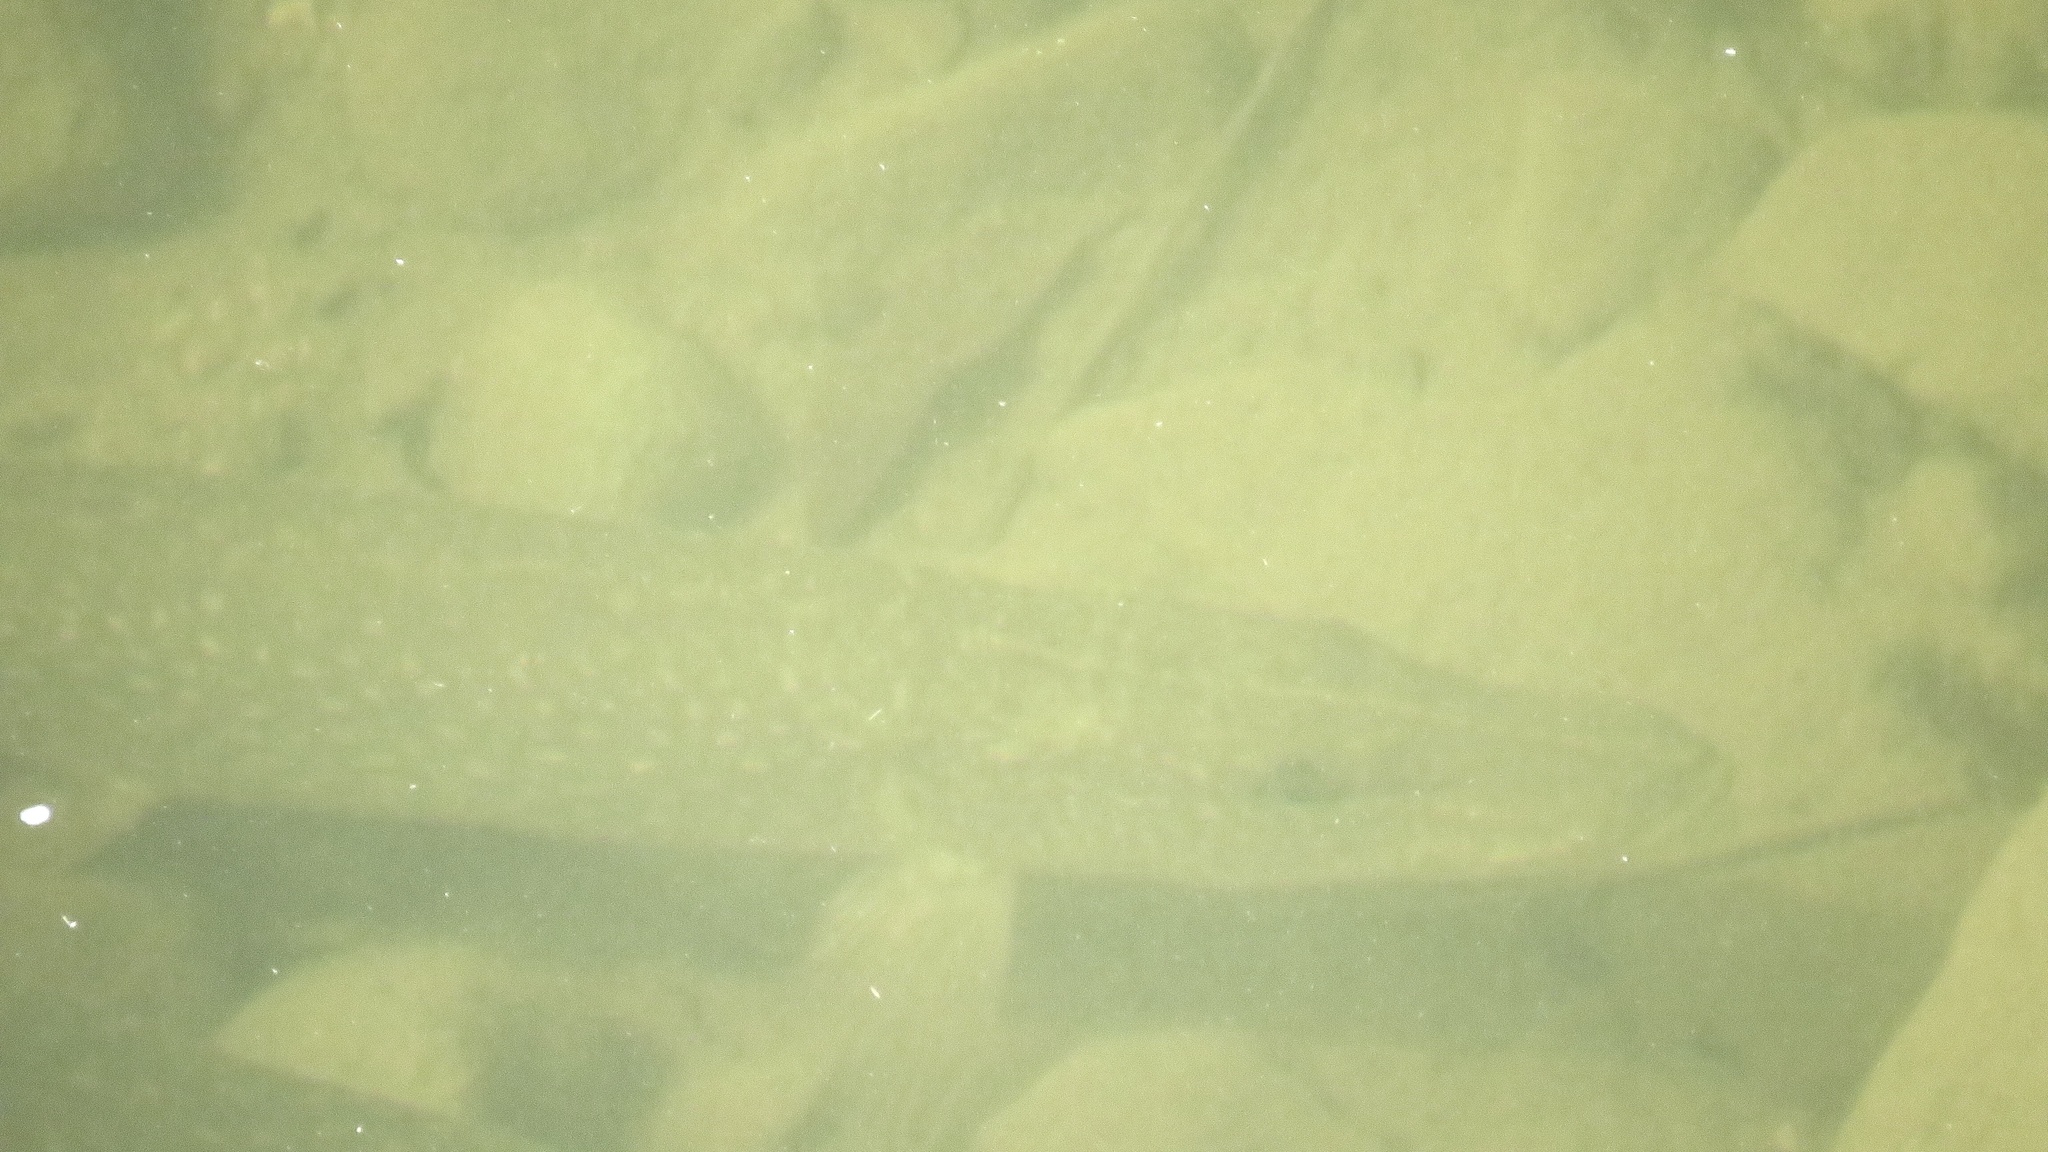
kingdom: Animalia
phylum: Chordata
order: Esociformes
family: Esocidae
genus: Esox
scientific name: Esox lucius
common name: Northern pike
